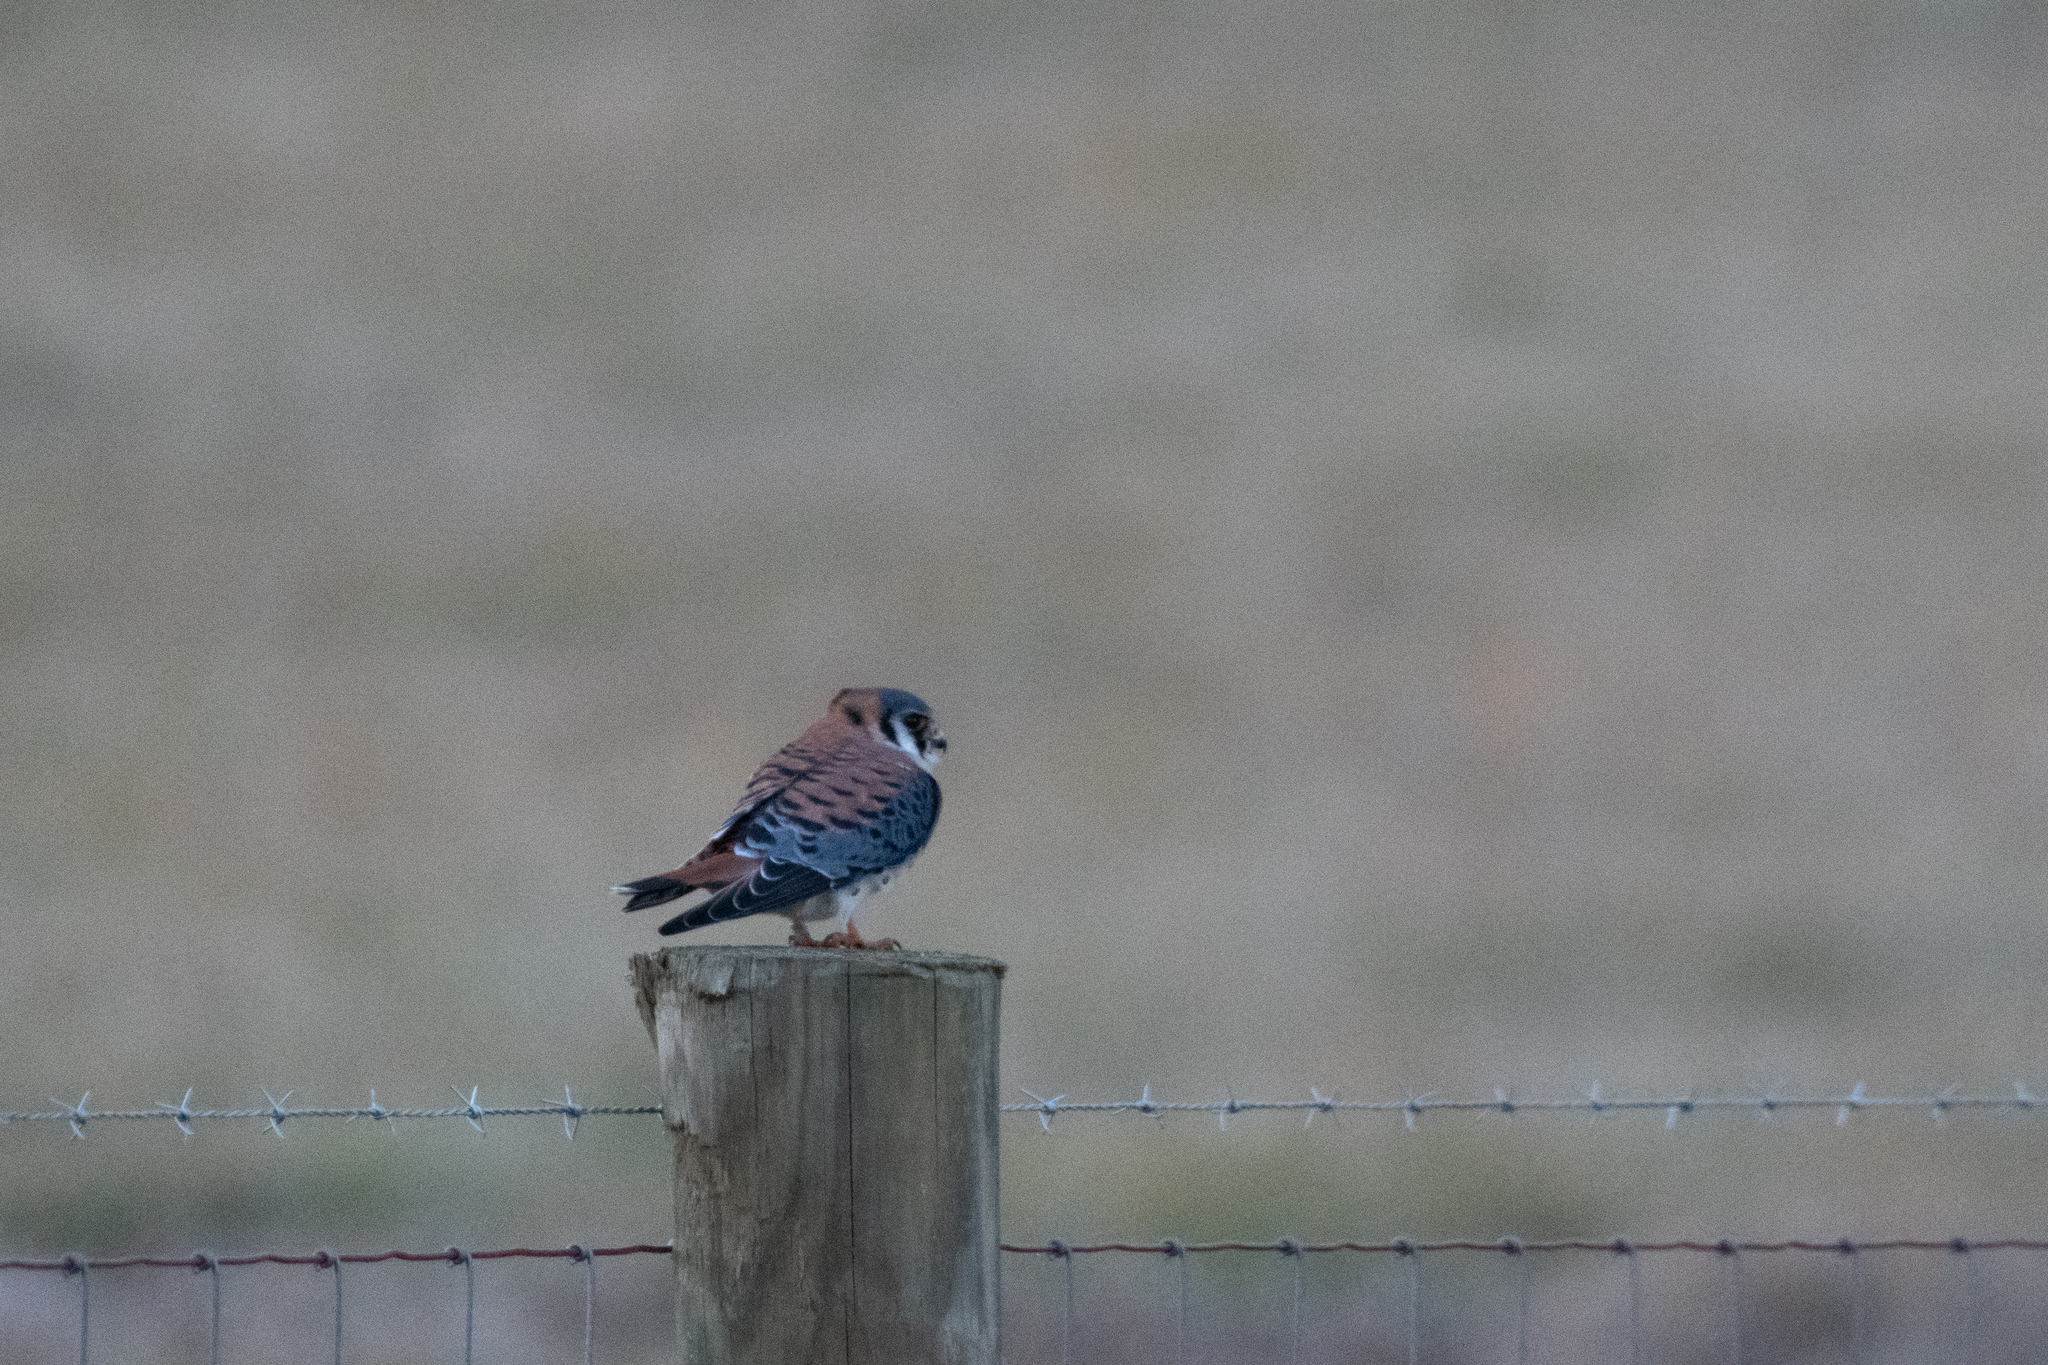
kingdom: Animalia
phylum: Chordata
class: Aves
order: Falconiformes
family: Falconidae
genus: Falco
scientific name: Falco sparverius
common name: American kestrel
